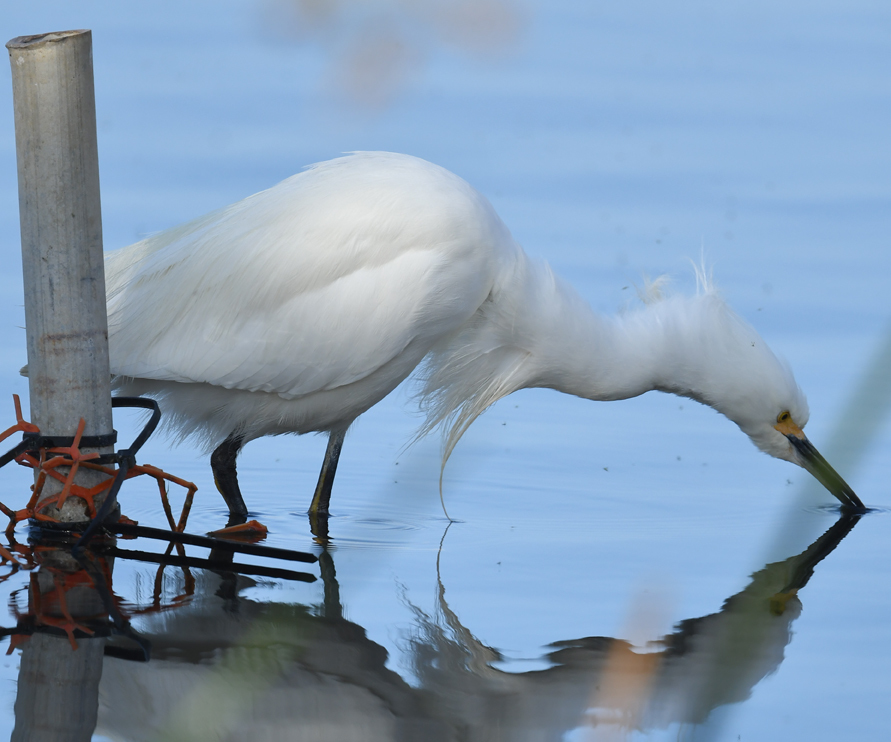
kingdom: Animalia
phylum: Chordata
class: Aves
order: Pelecaniformes
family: Ardeidae
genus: Egretta
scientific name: Egretta thula
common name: Snowy egret
